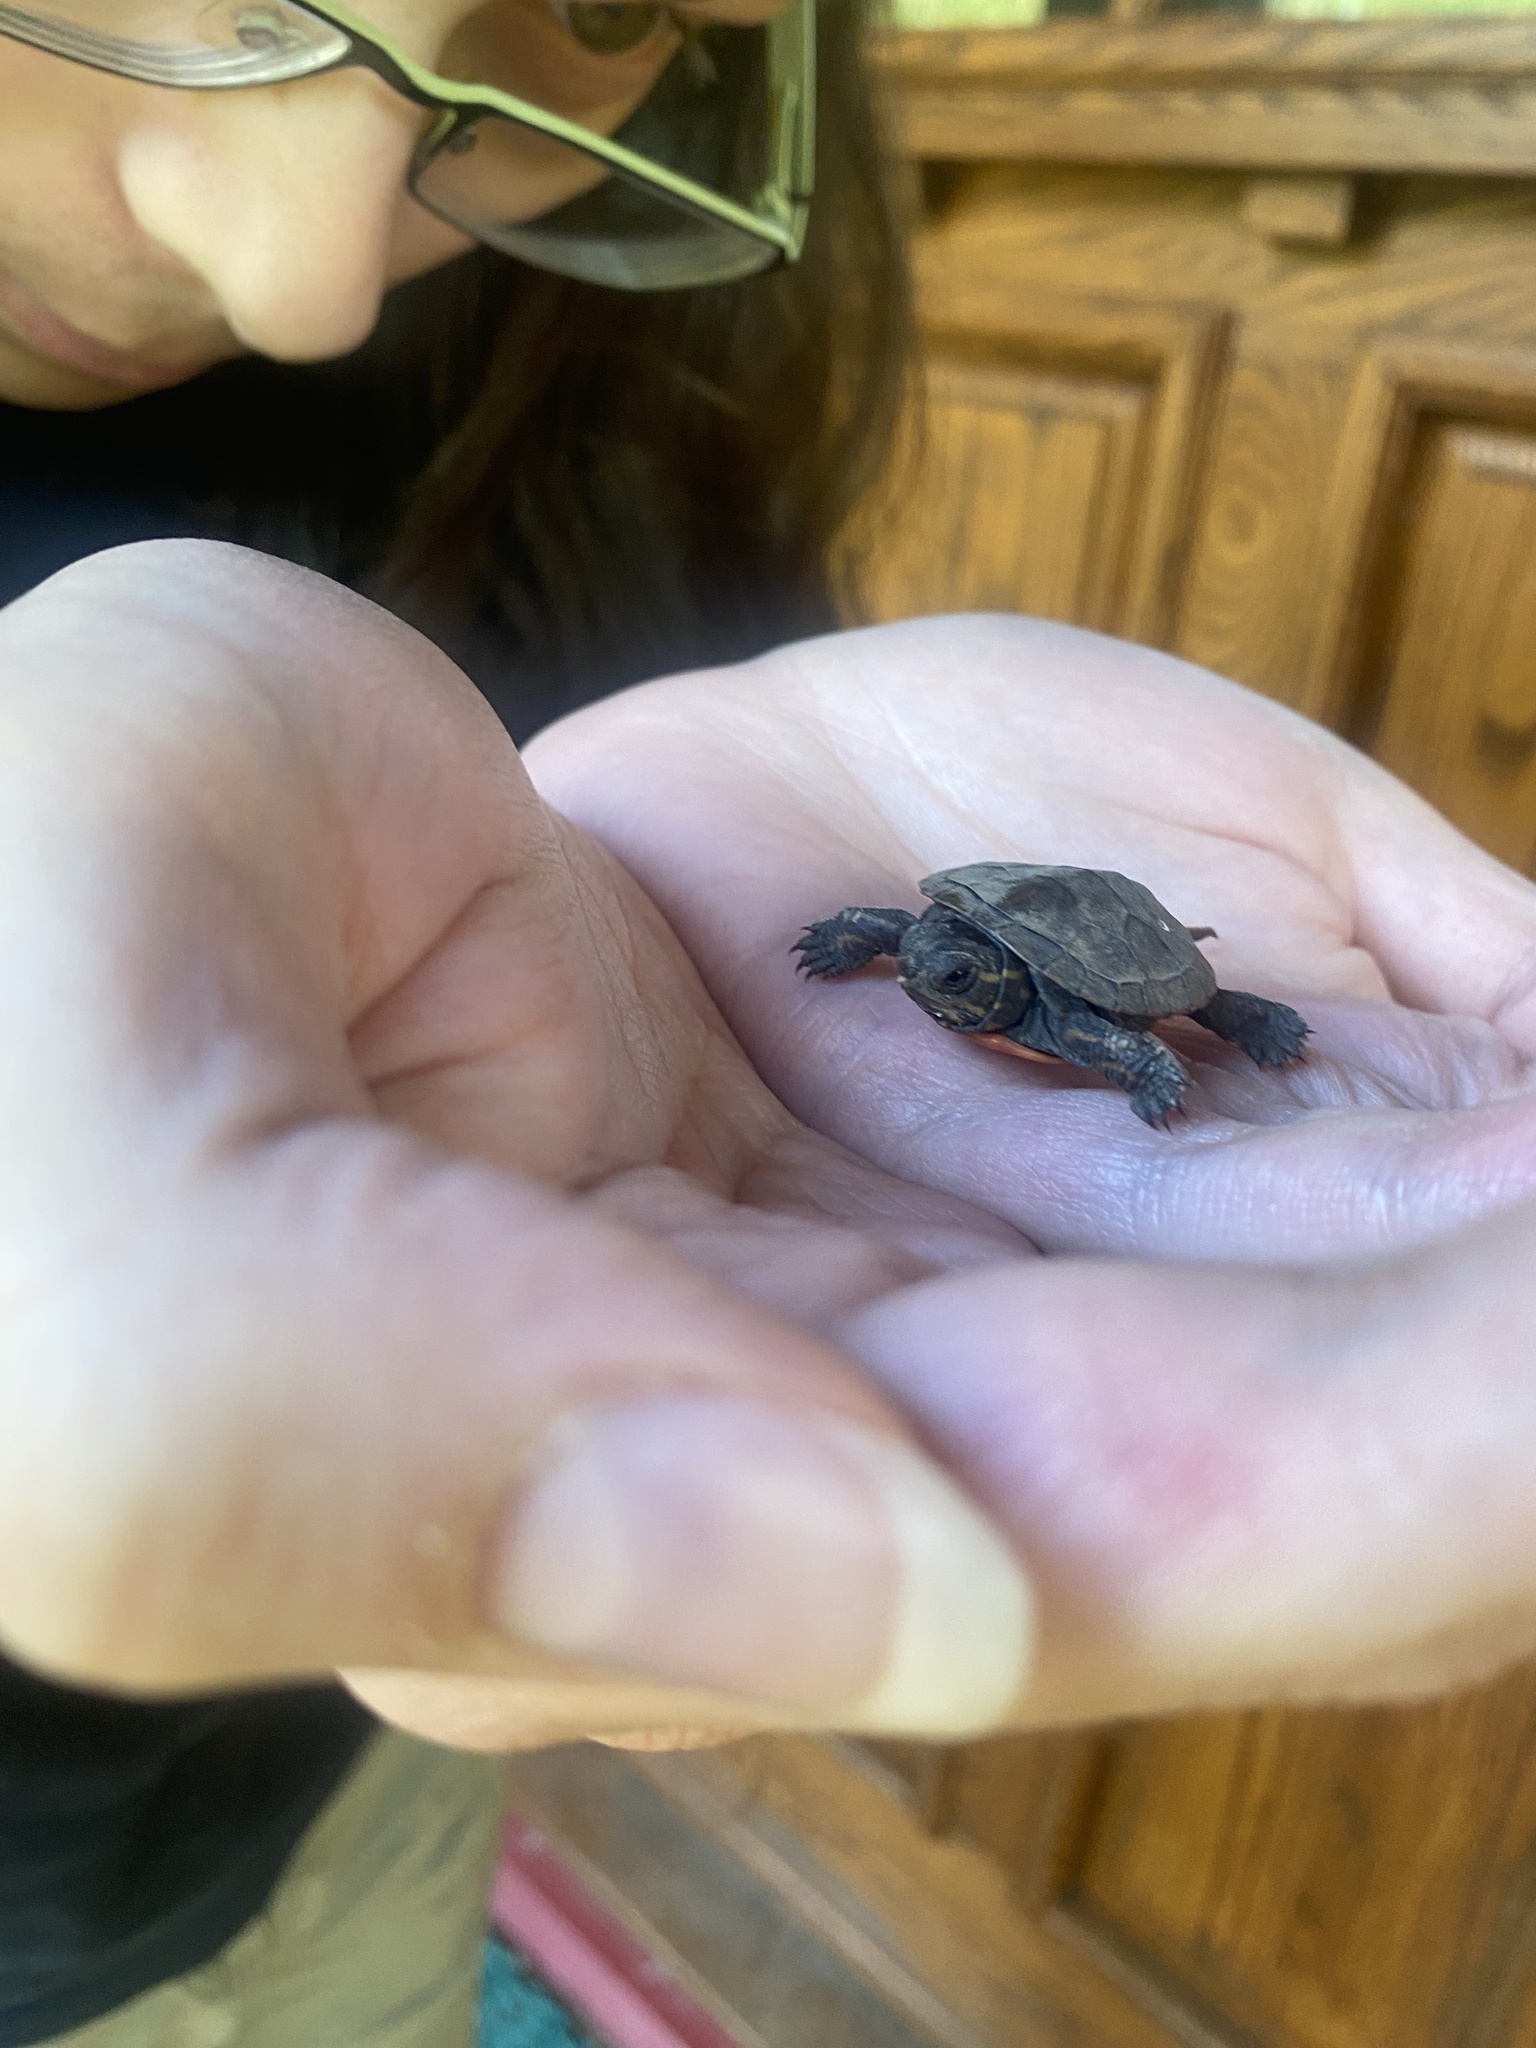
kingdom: Animalia
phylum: Chordata
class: Testudines
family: Emydidae
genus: Chrysemys
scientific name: Chrysemys picta
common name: Painted turtle
